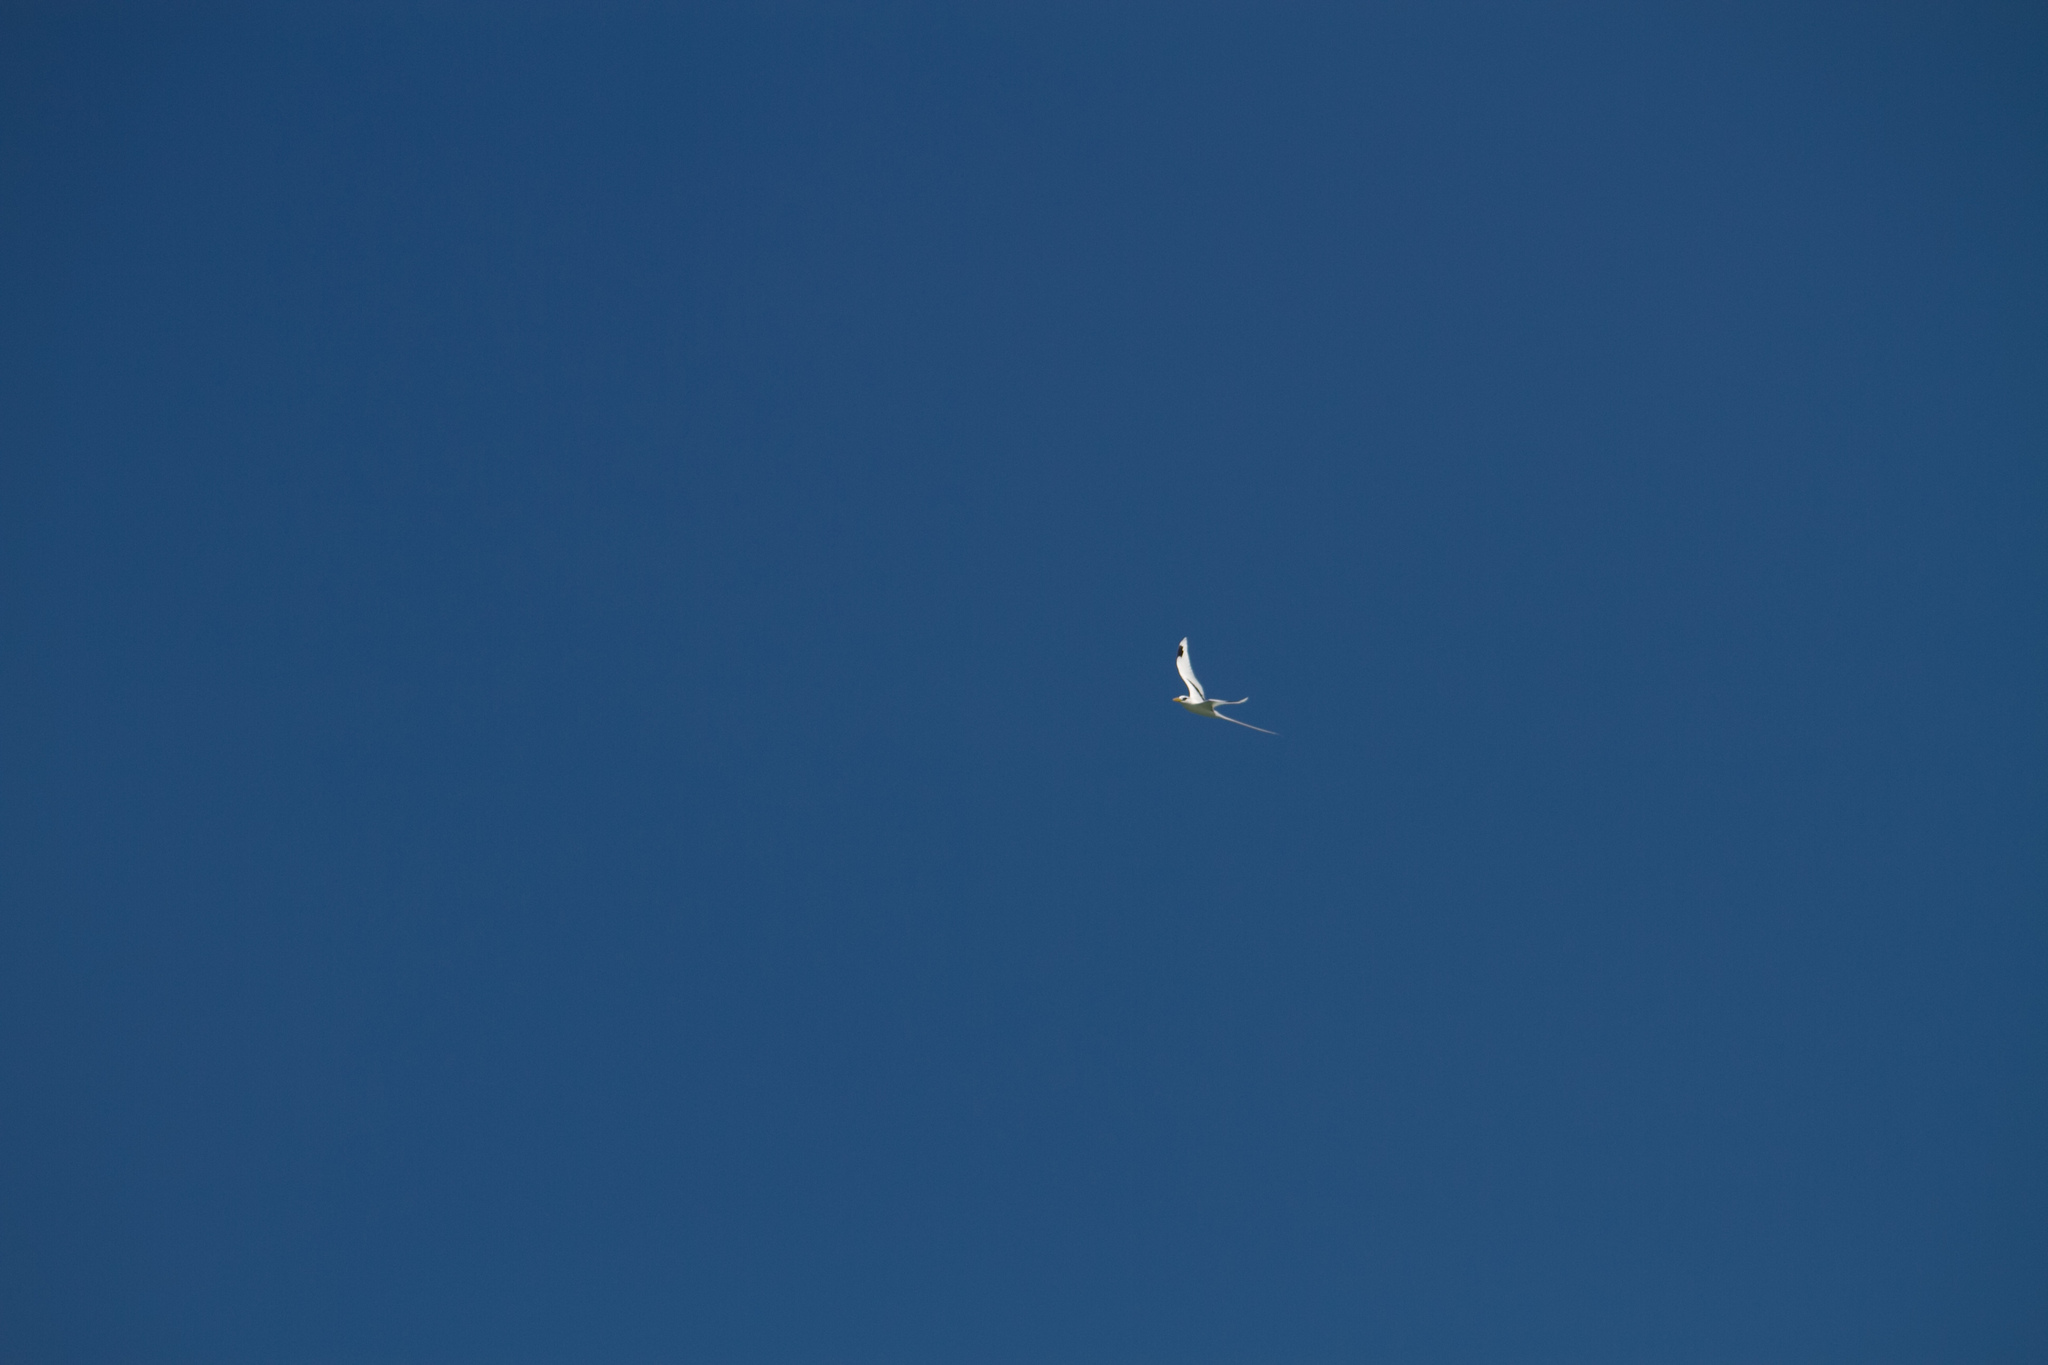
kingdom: Animalia
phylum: Chordata
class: Aves
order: Phaethontiformes
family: Phaethontidae
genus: Phaethon
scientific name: Phaethon lepturus
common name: White-tailed tropicbird
